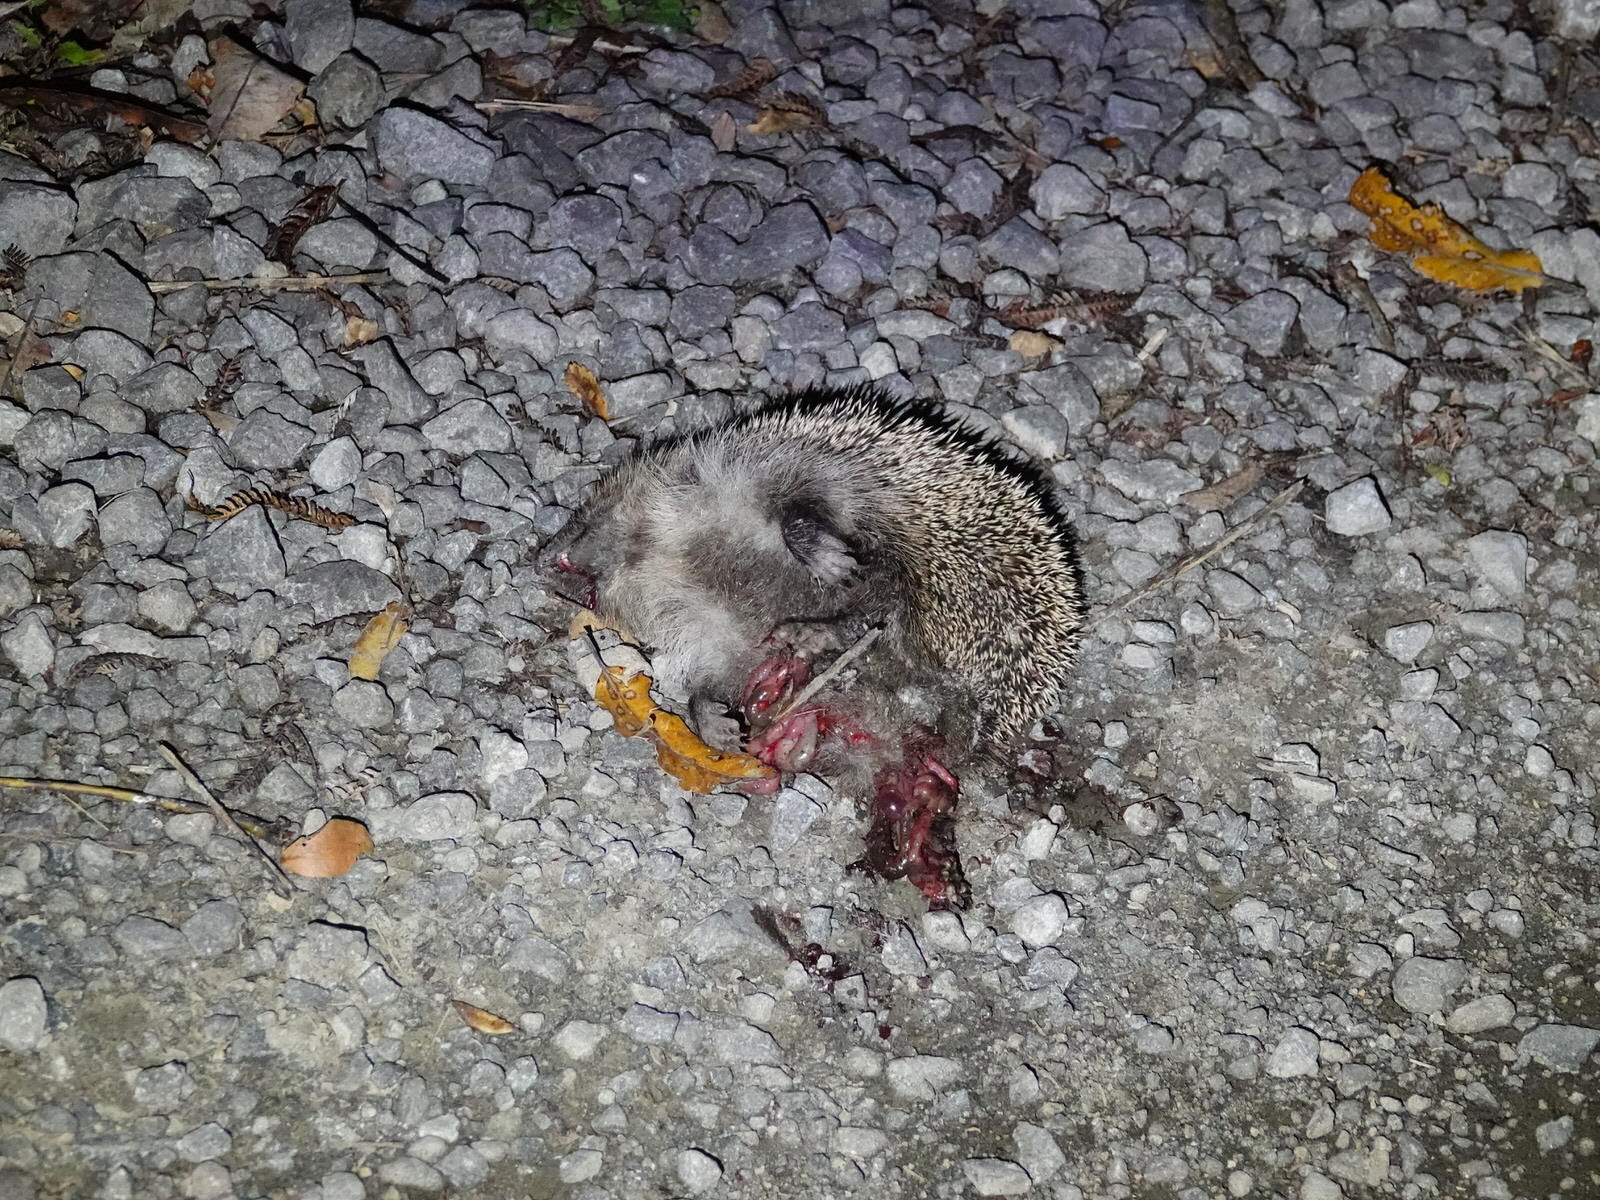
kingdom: Animalia
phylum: Chordata
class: Mammalia
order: Erinaceomorpha
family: Erinaceidae
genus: Erinaceus
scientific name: Erinaceus europaeus
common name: West european hedgehog
